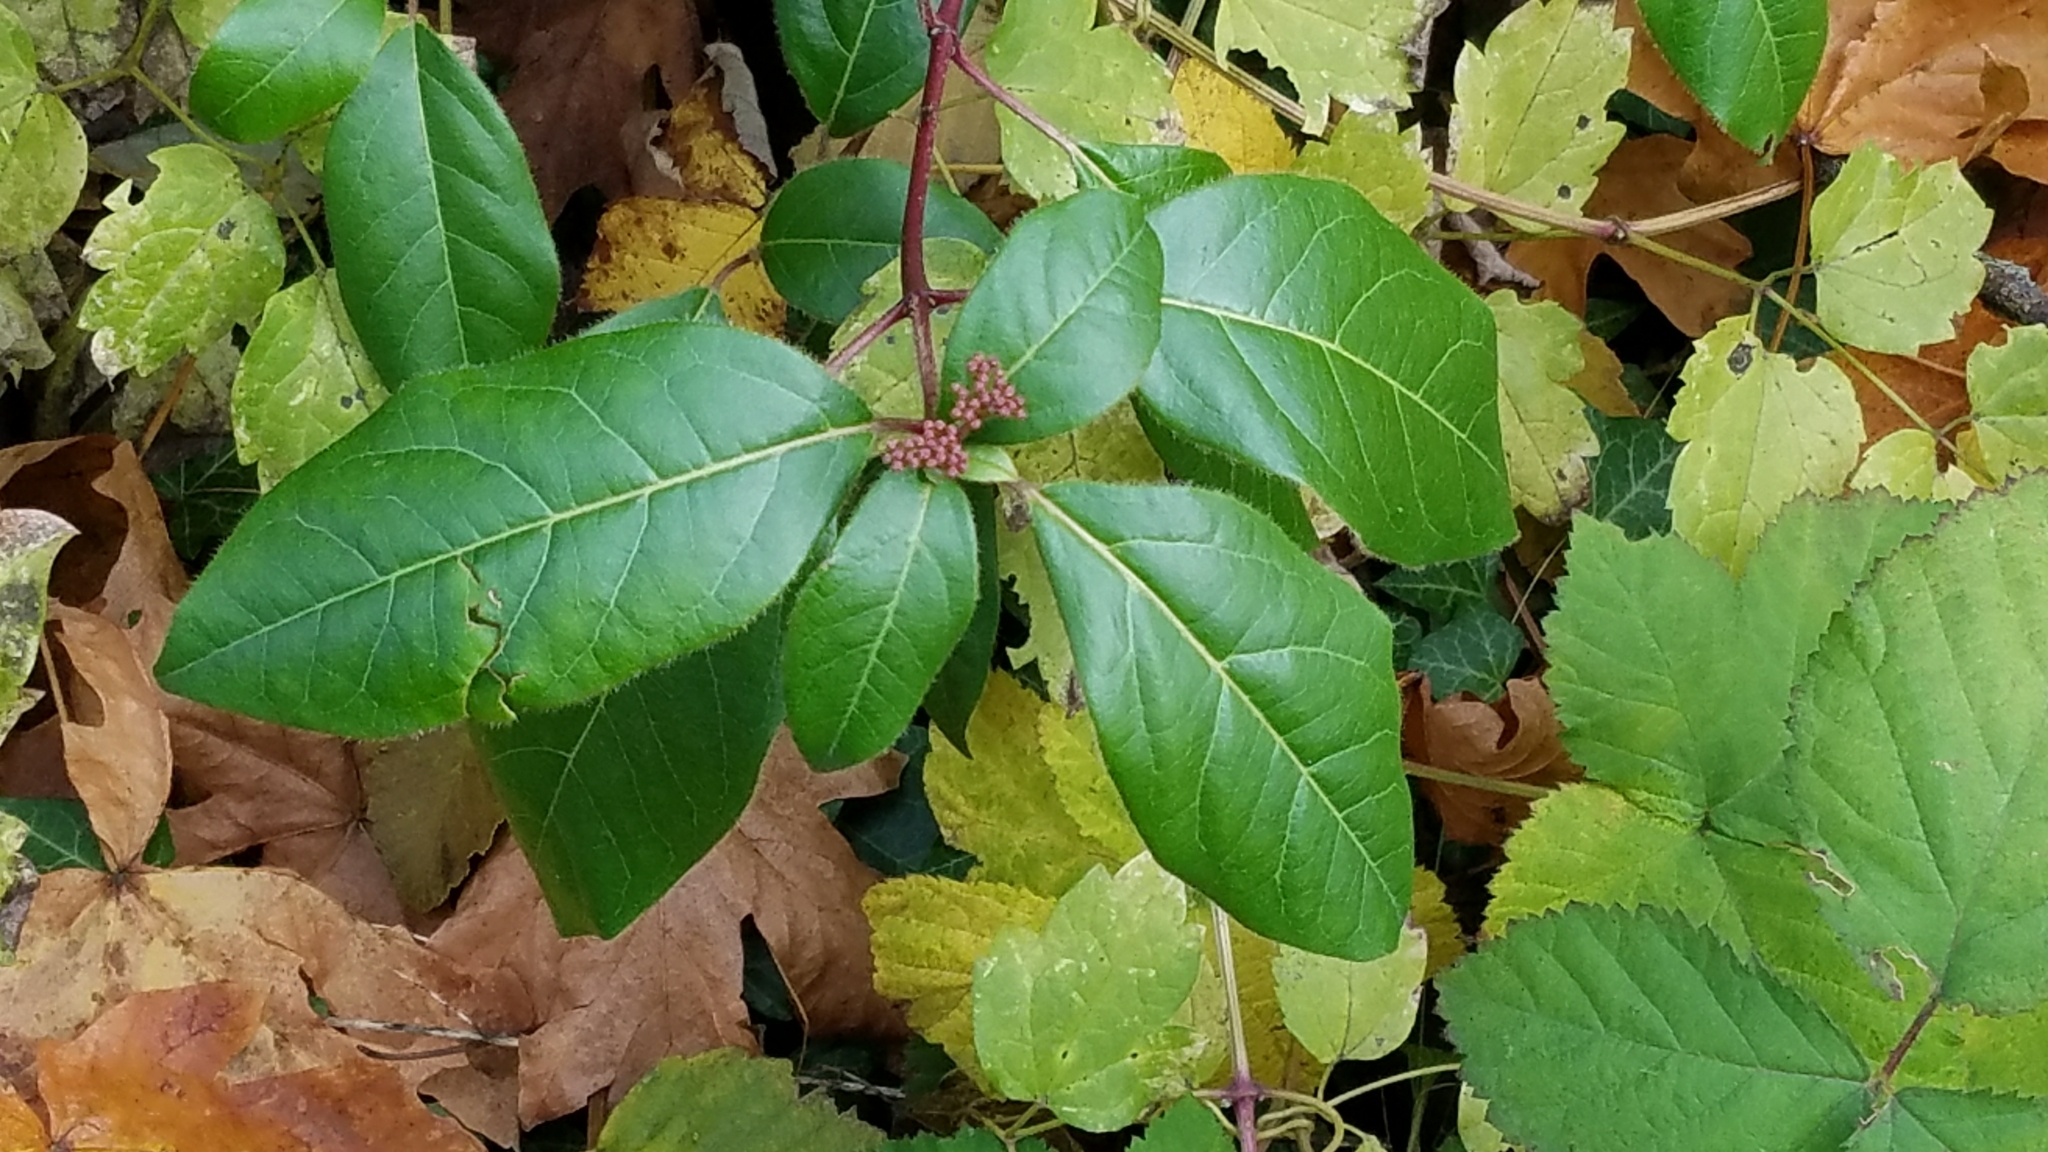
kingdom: Plantae
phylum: Tracheophyta
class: Magnoliopsida
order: Dipsacales
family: Viburnaceae
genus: Viburnum
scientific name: Viburnum tinus
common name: Laurustinus
